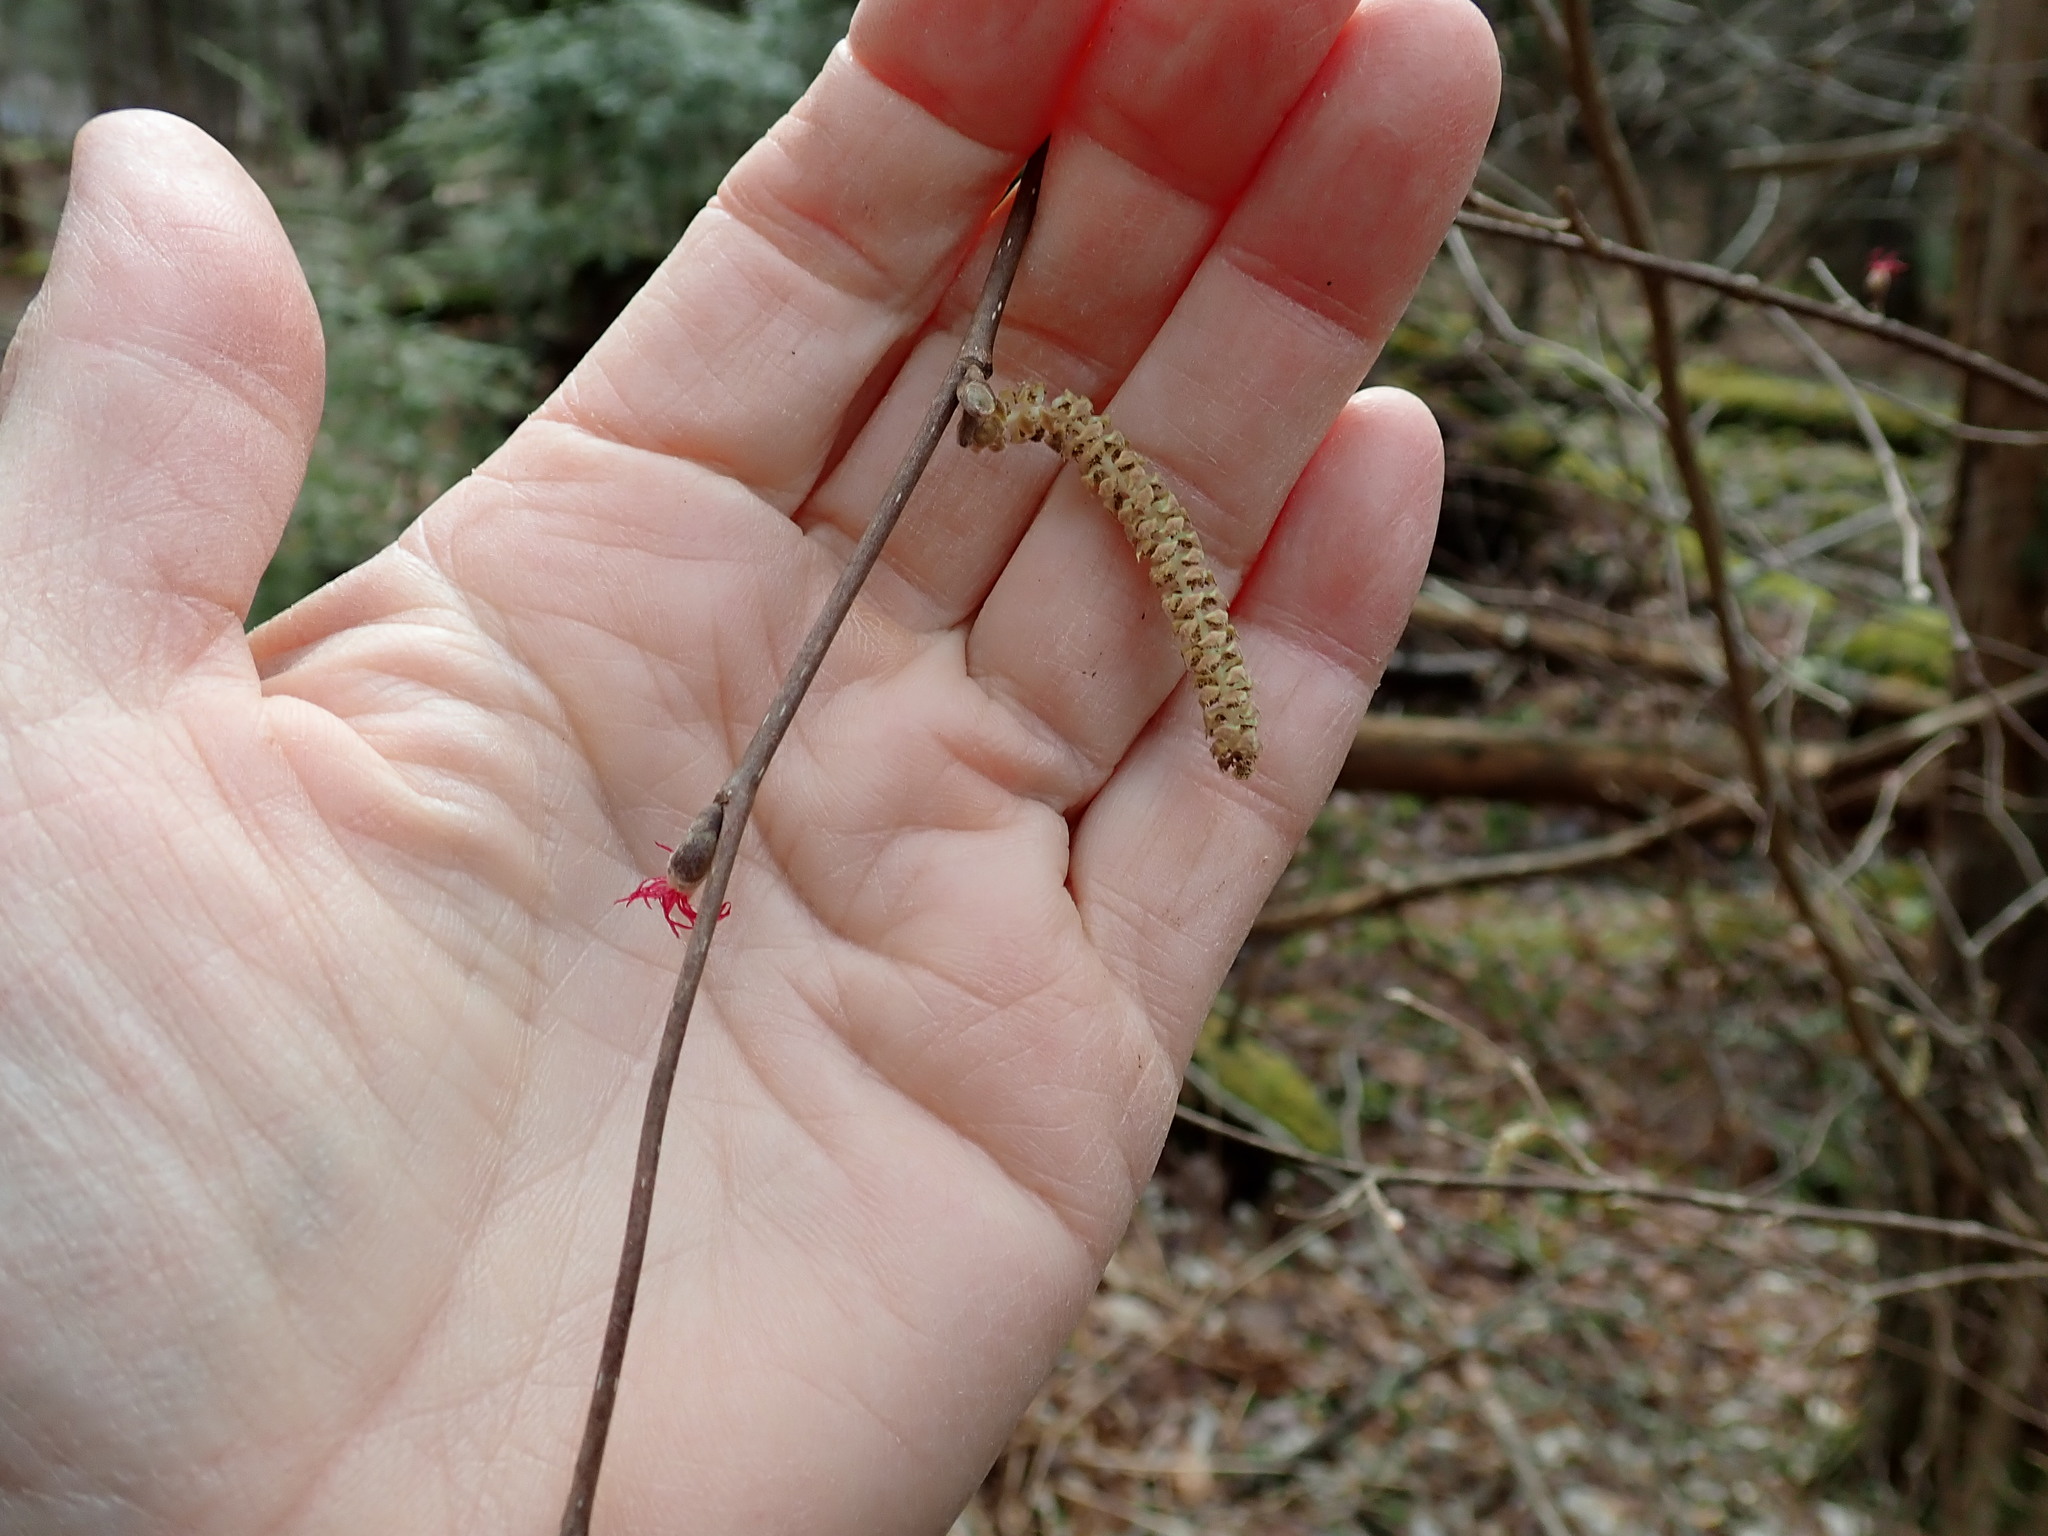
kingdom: Plantae
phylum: Tracheophyta
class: Magnoliopsida
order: Fagales
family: Betulaceae
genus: Corylus
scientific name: Corylus cornuta
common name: Beaked hazel
